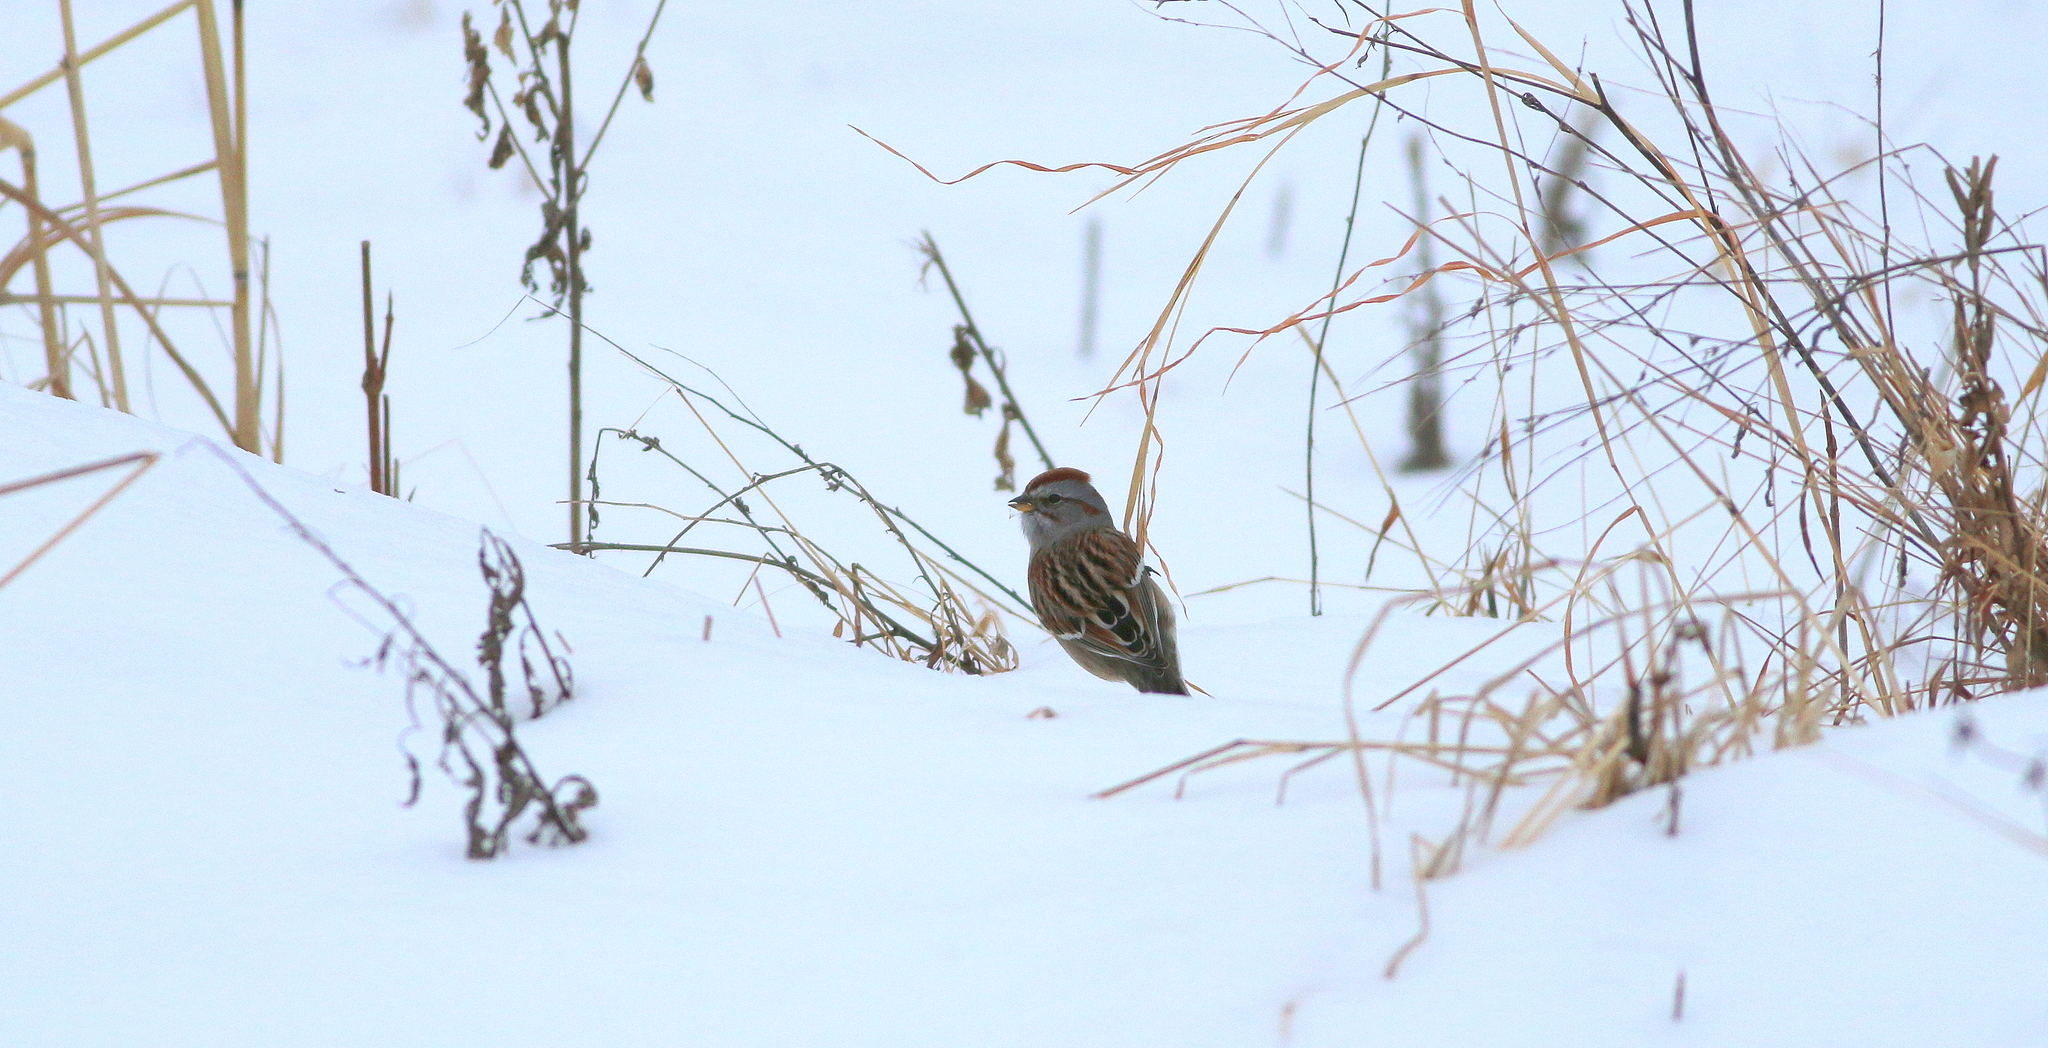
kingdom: Animalia
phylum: Chordata
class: Aves
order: Passeriformes
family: Passerellidae
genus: Spizelloides
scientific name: Spizelloides arborea
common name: American tree sparrow
